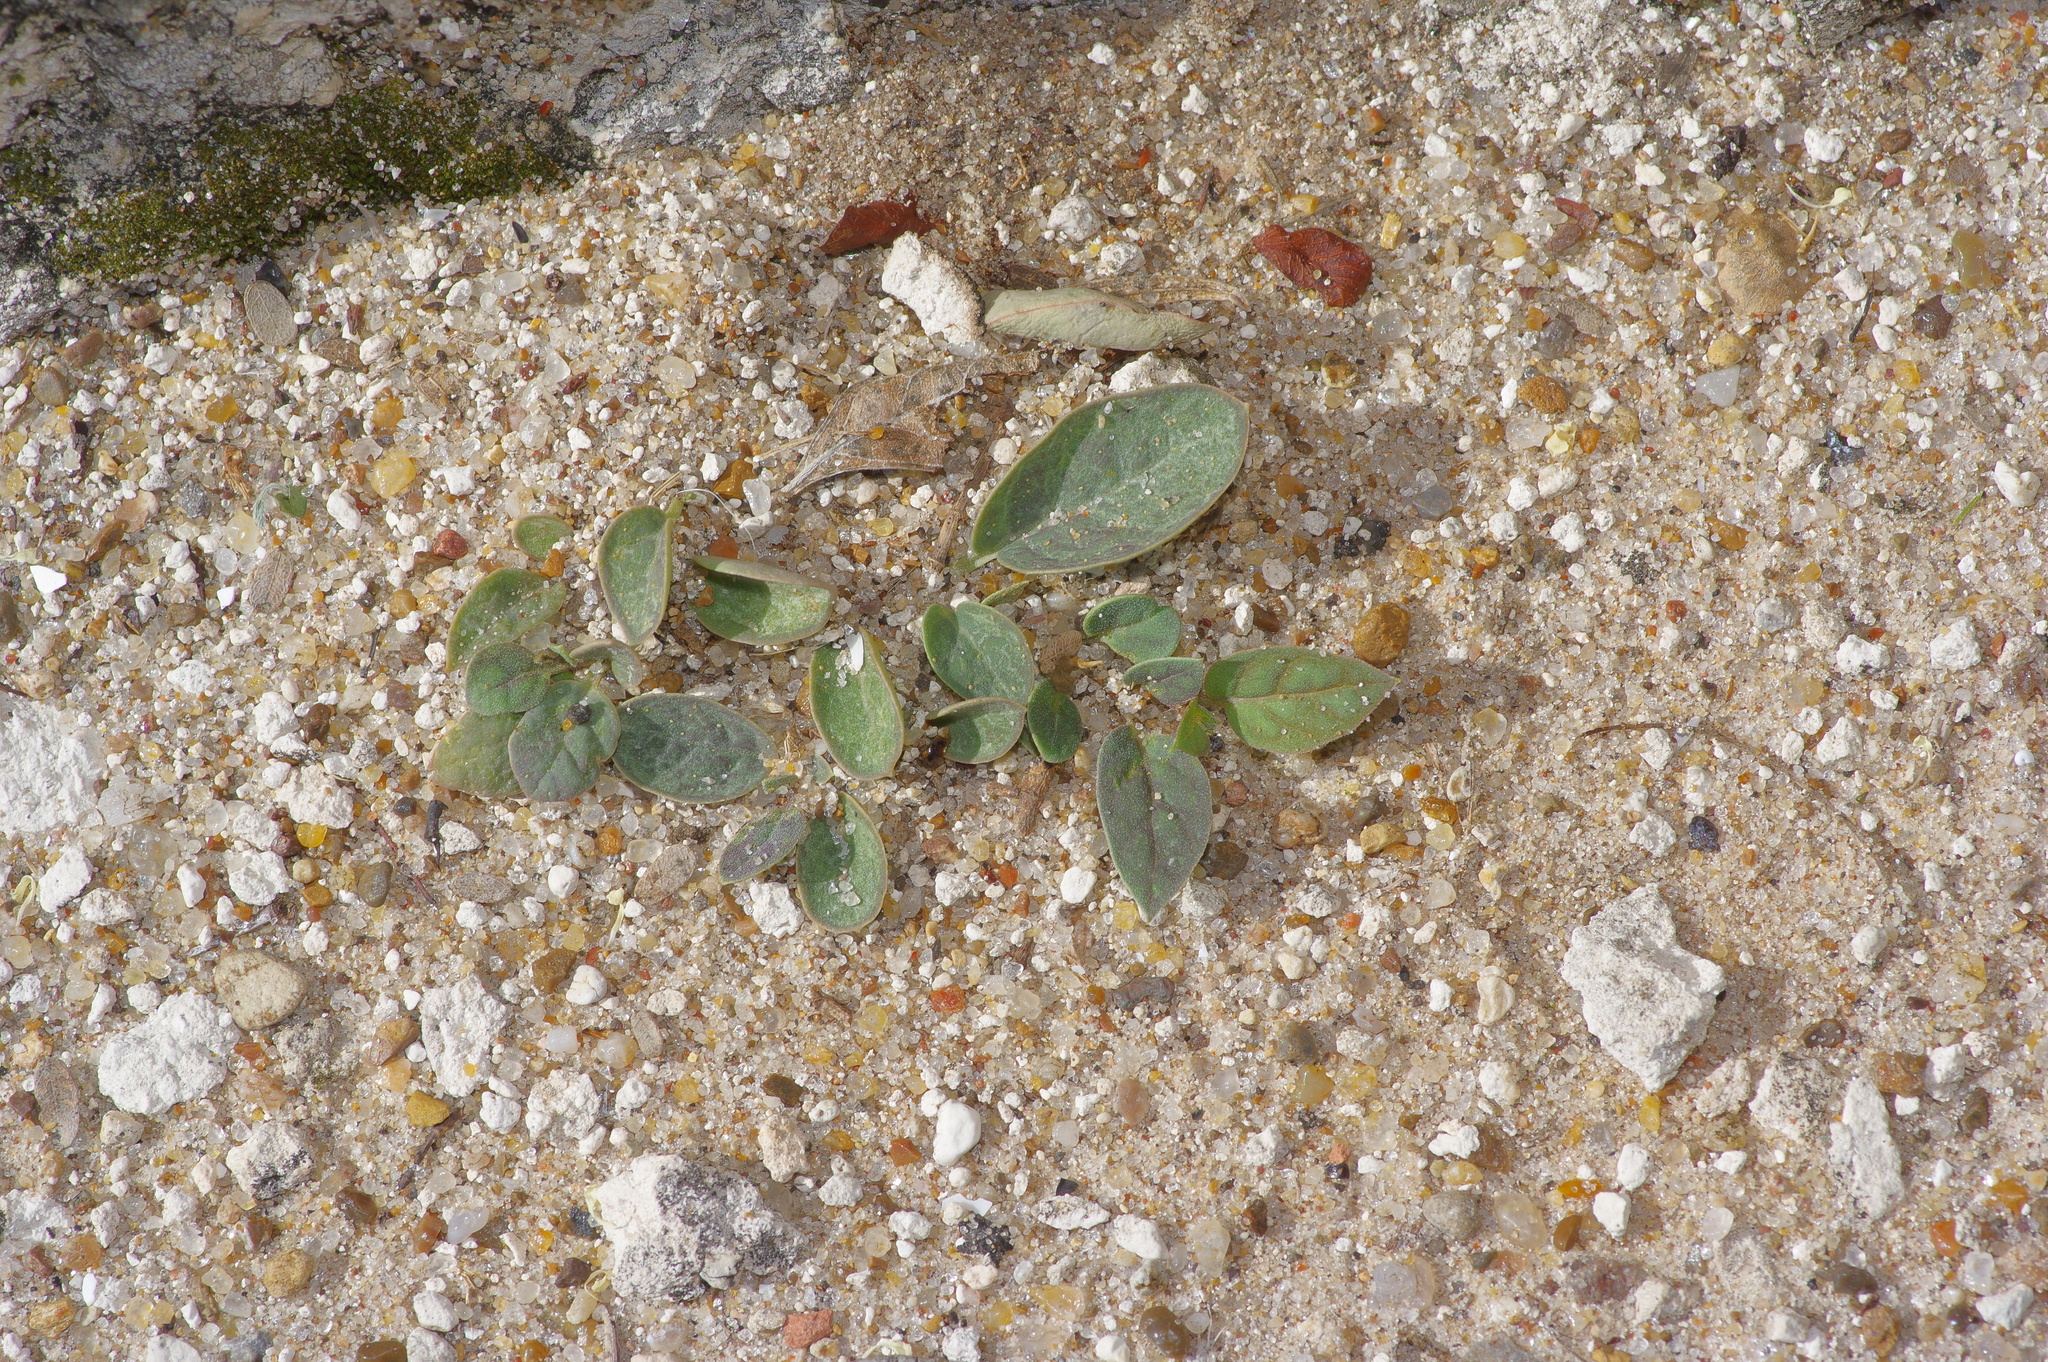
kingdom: Plantae
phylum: Tracheophyta
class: Magnoliopsida
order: Caryophyllales
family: Nyctaginaceae
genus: Acleisanthes
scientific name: Acleisanthes anisophylla
